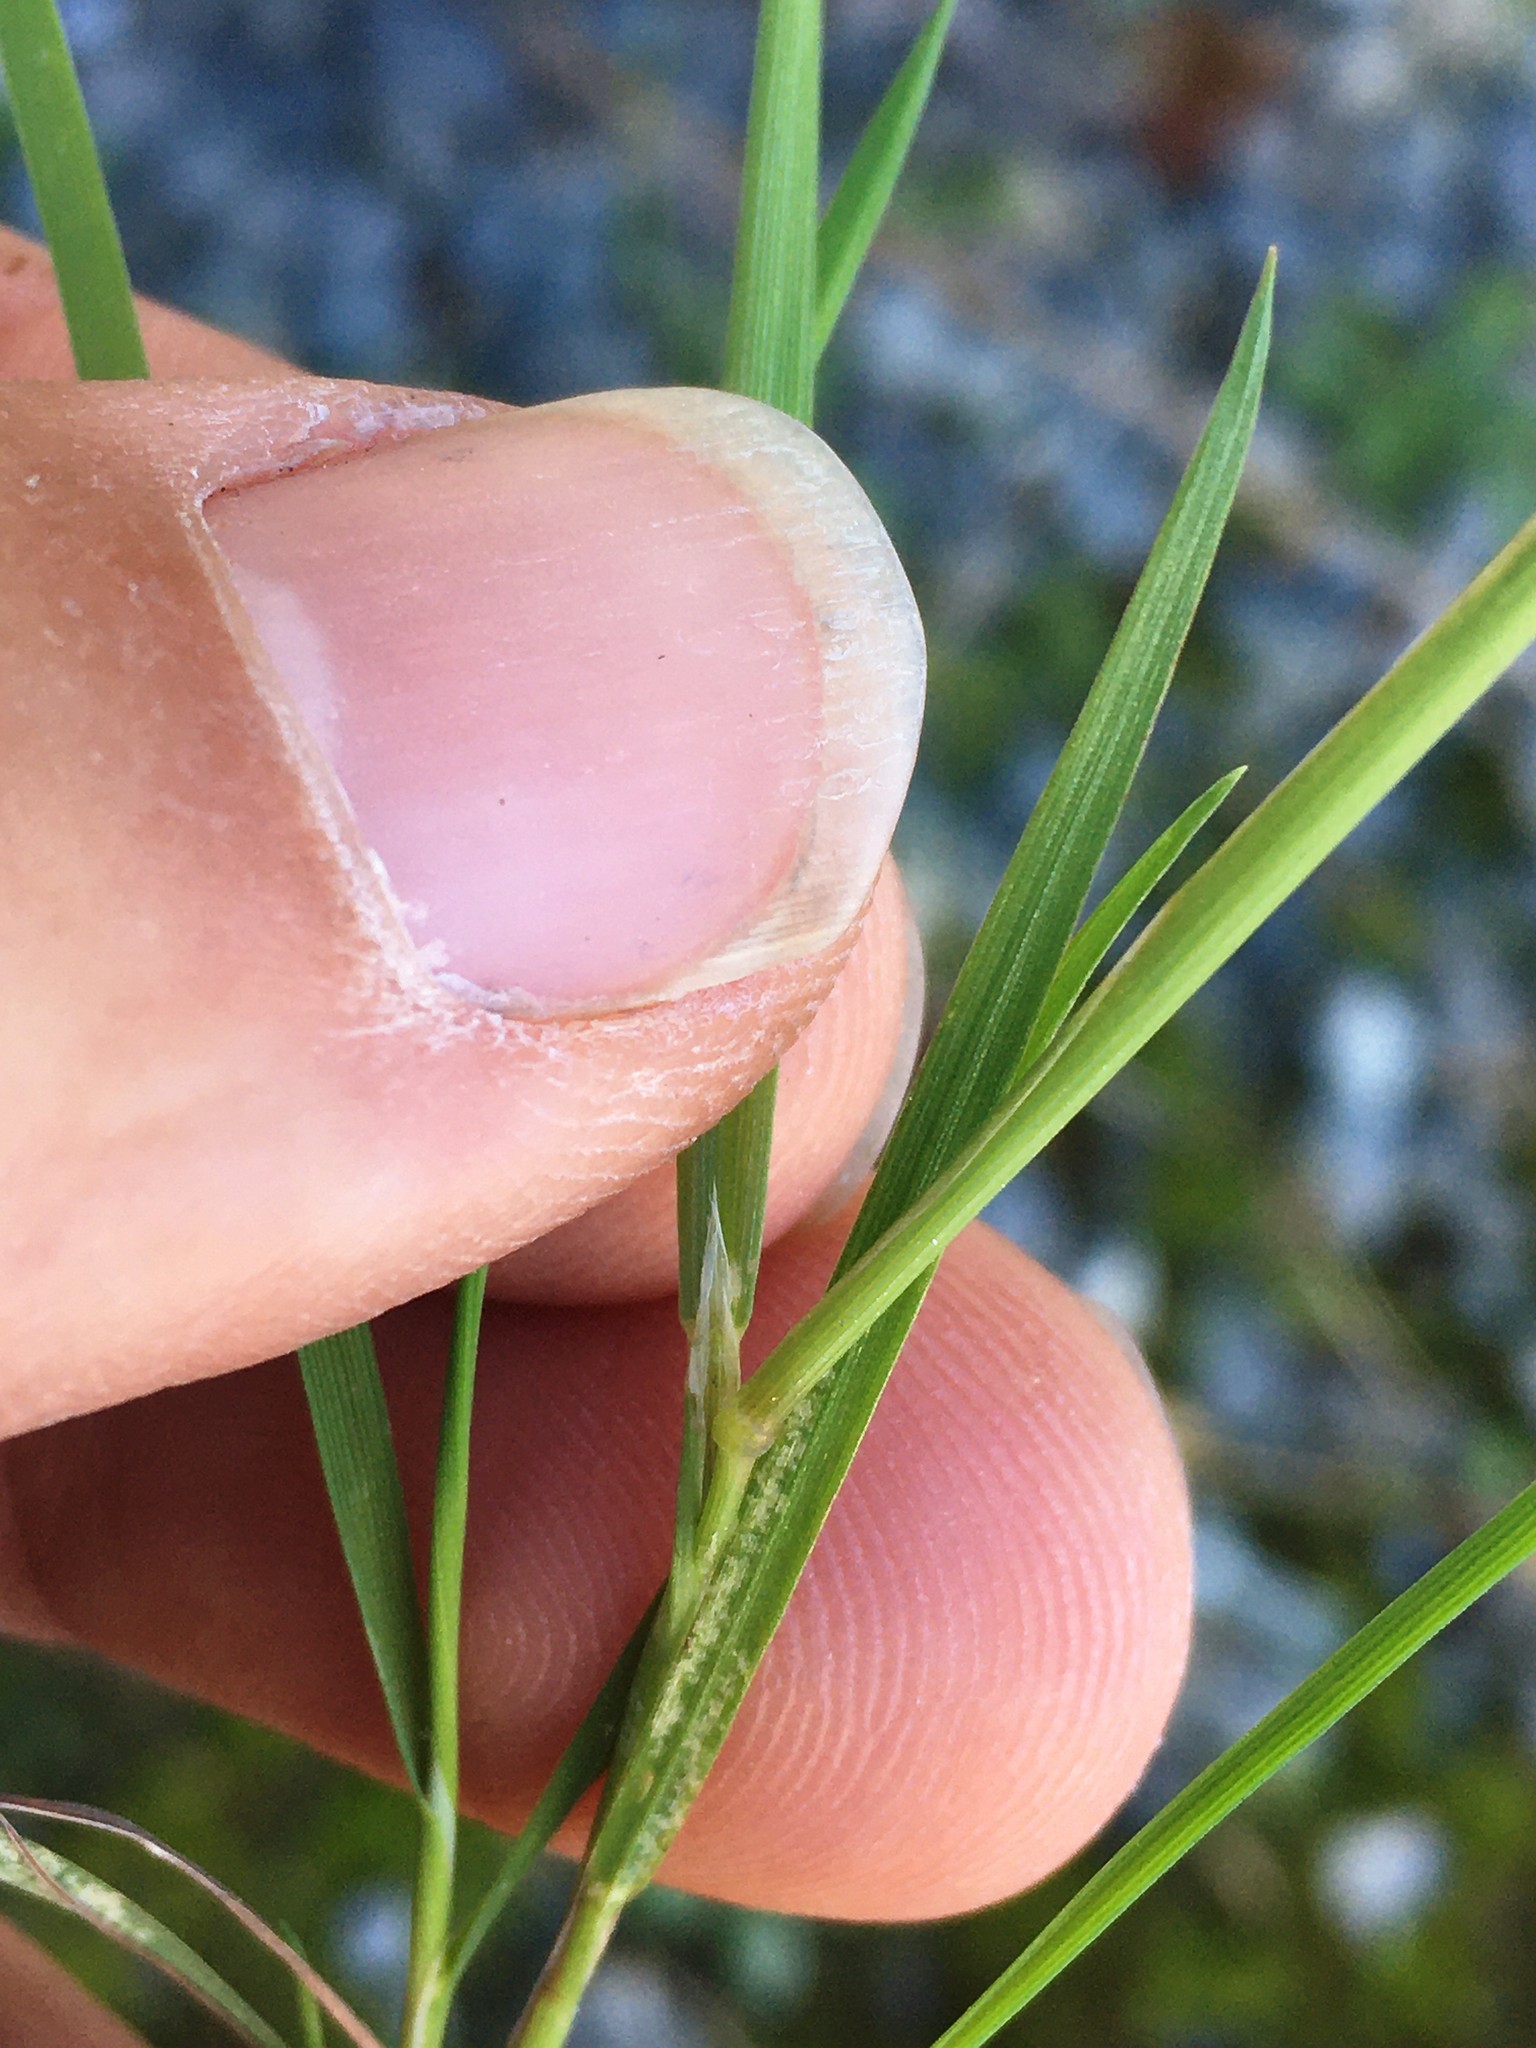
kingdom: Plantae
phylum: Tracheophyta
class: Liliopsida
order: Poales
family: Poaceae
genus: Cynosurus
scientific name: Cynosurus echinatus
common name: Rough dog's-tail
